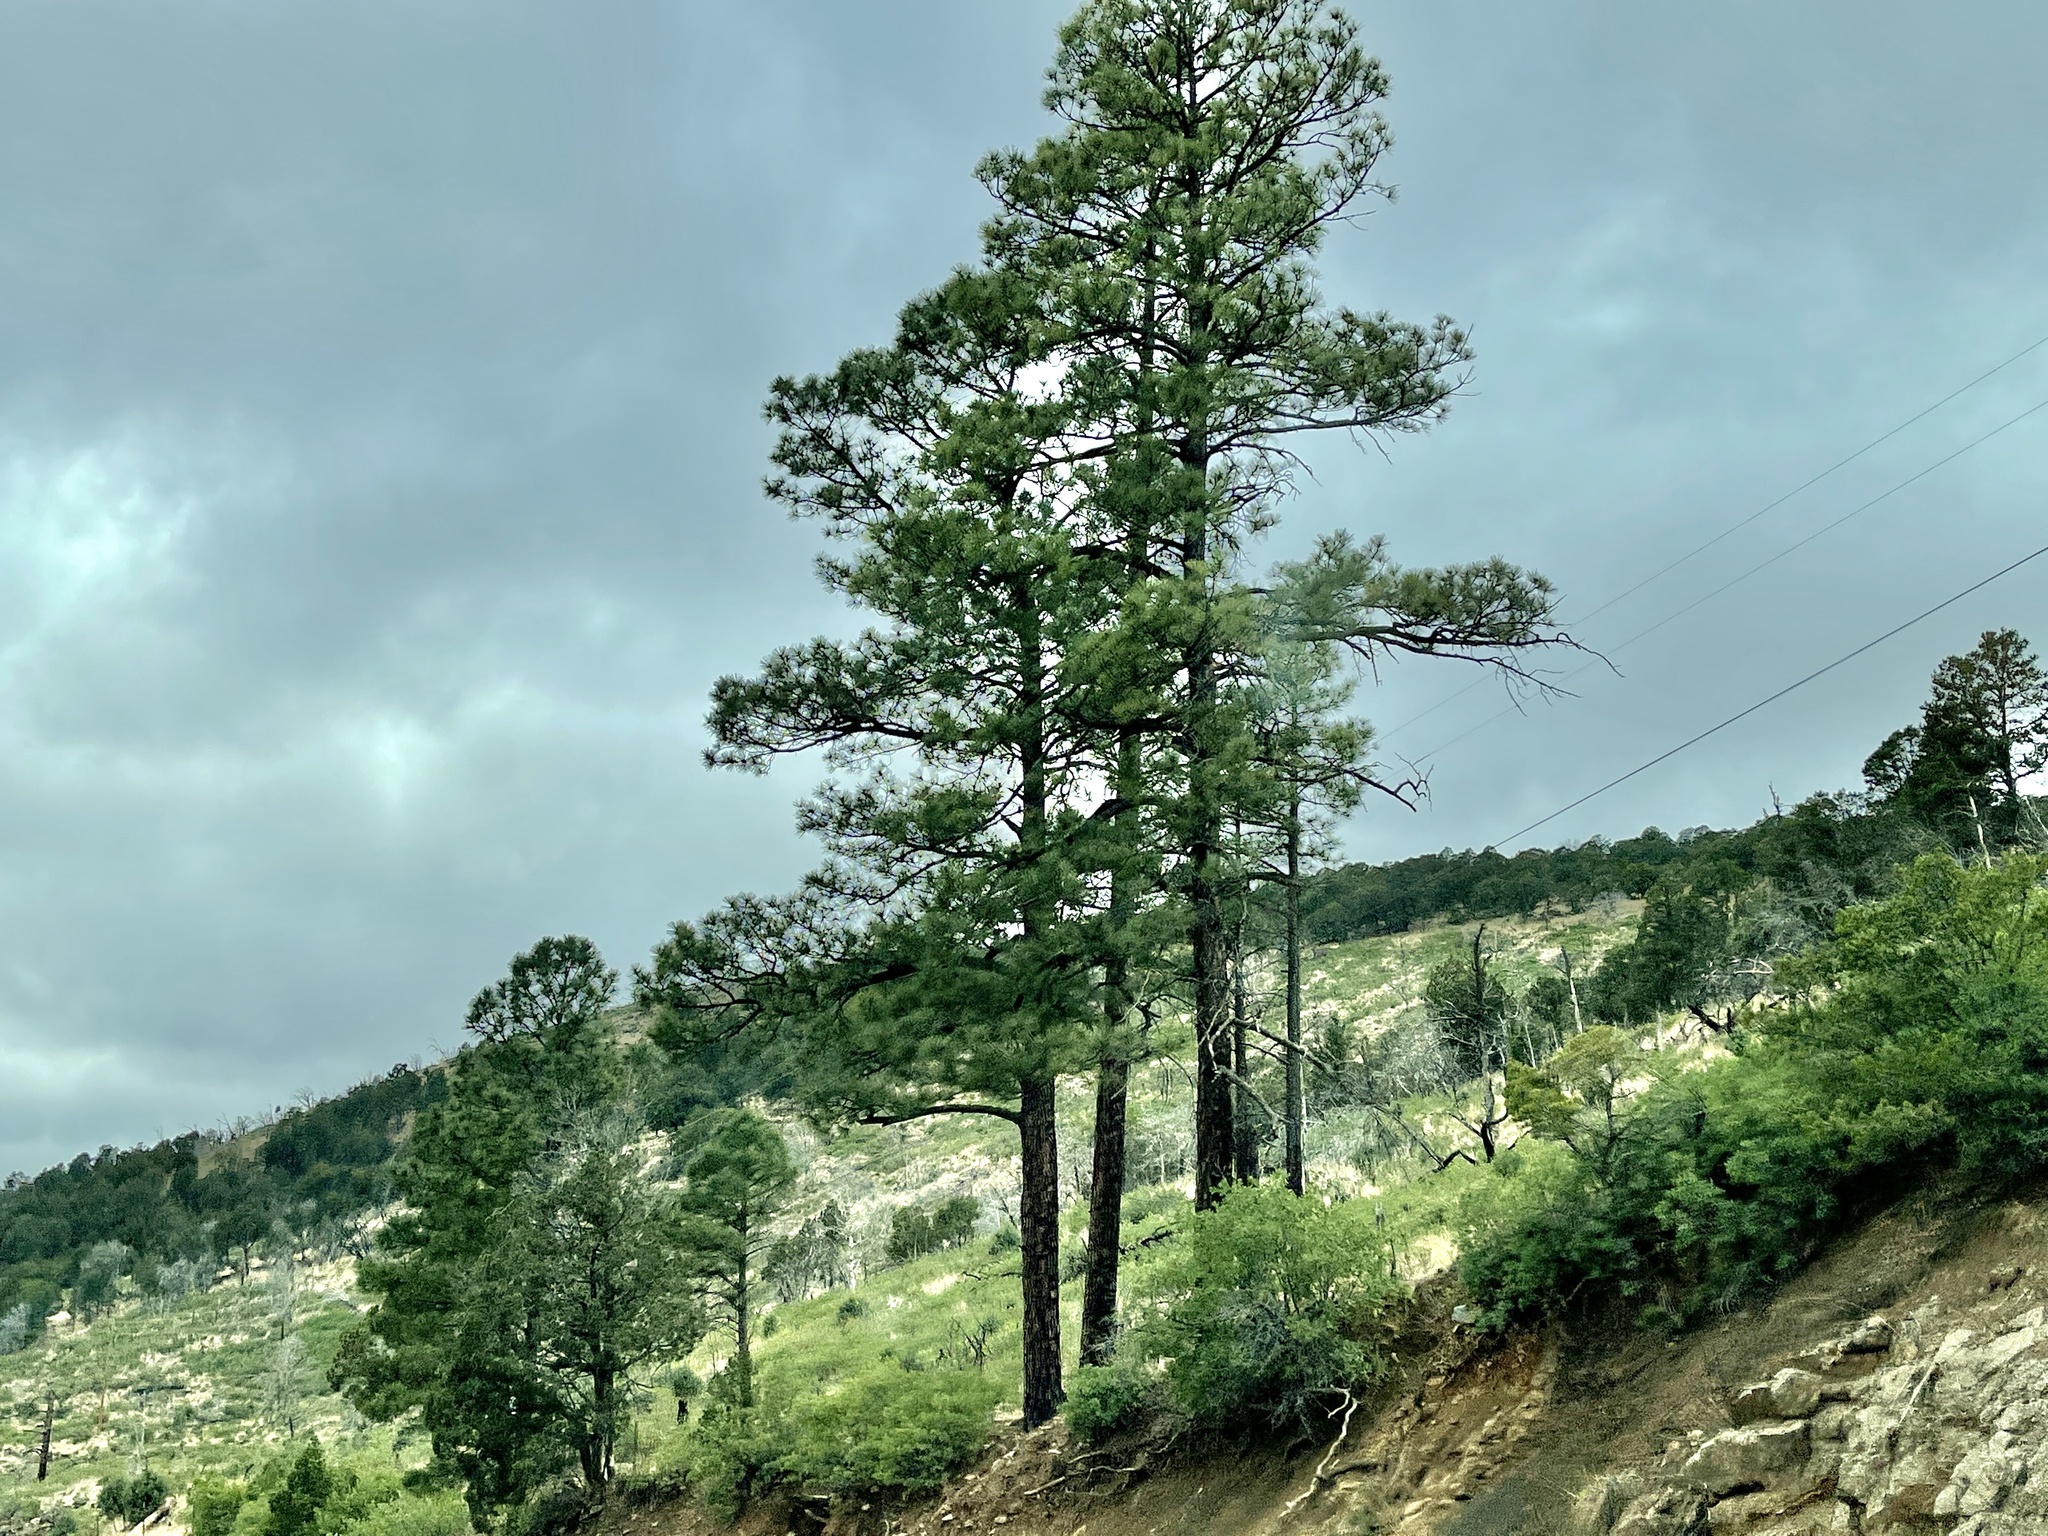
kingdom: Plantae
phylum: Tracheophyta
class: Pinopsida
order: Pinales
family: Pinaceae
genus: Pinus
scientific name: Pinus ponderosa
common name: Western yellow-pine
